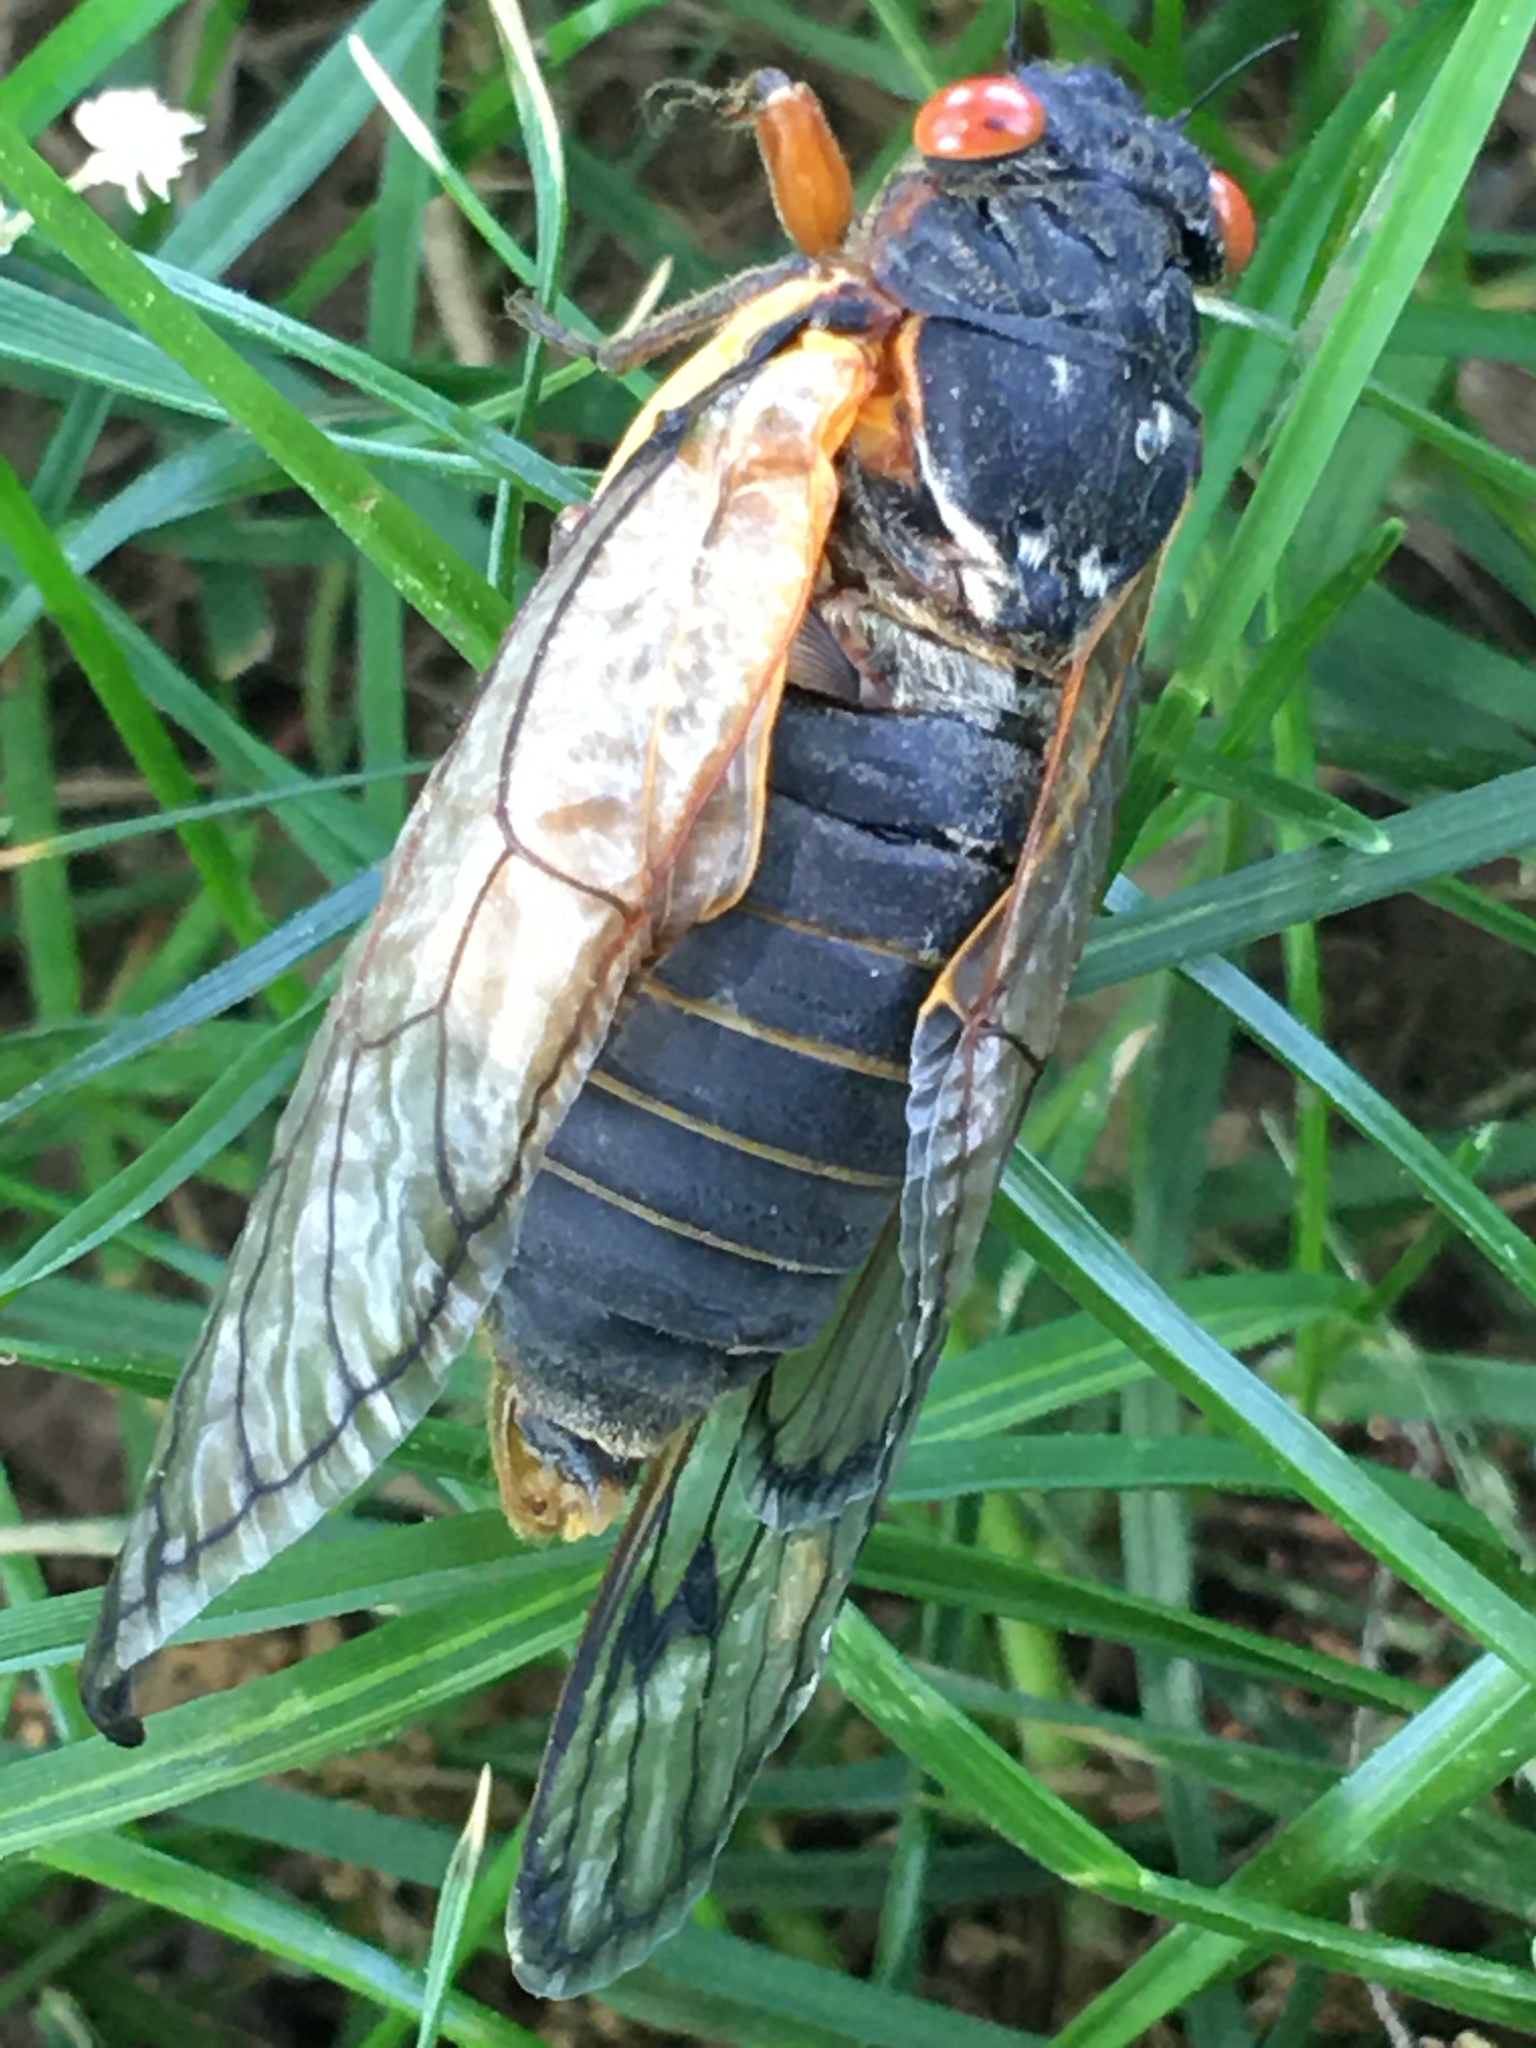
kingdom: Animalia
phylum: Arthropoda
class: Insecta
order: Hemiptera
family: Cicadidae
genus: Magicicada
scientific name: Magicicada septendecim
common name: Periodical cicada
